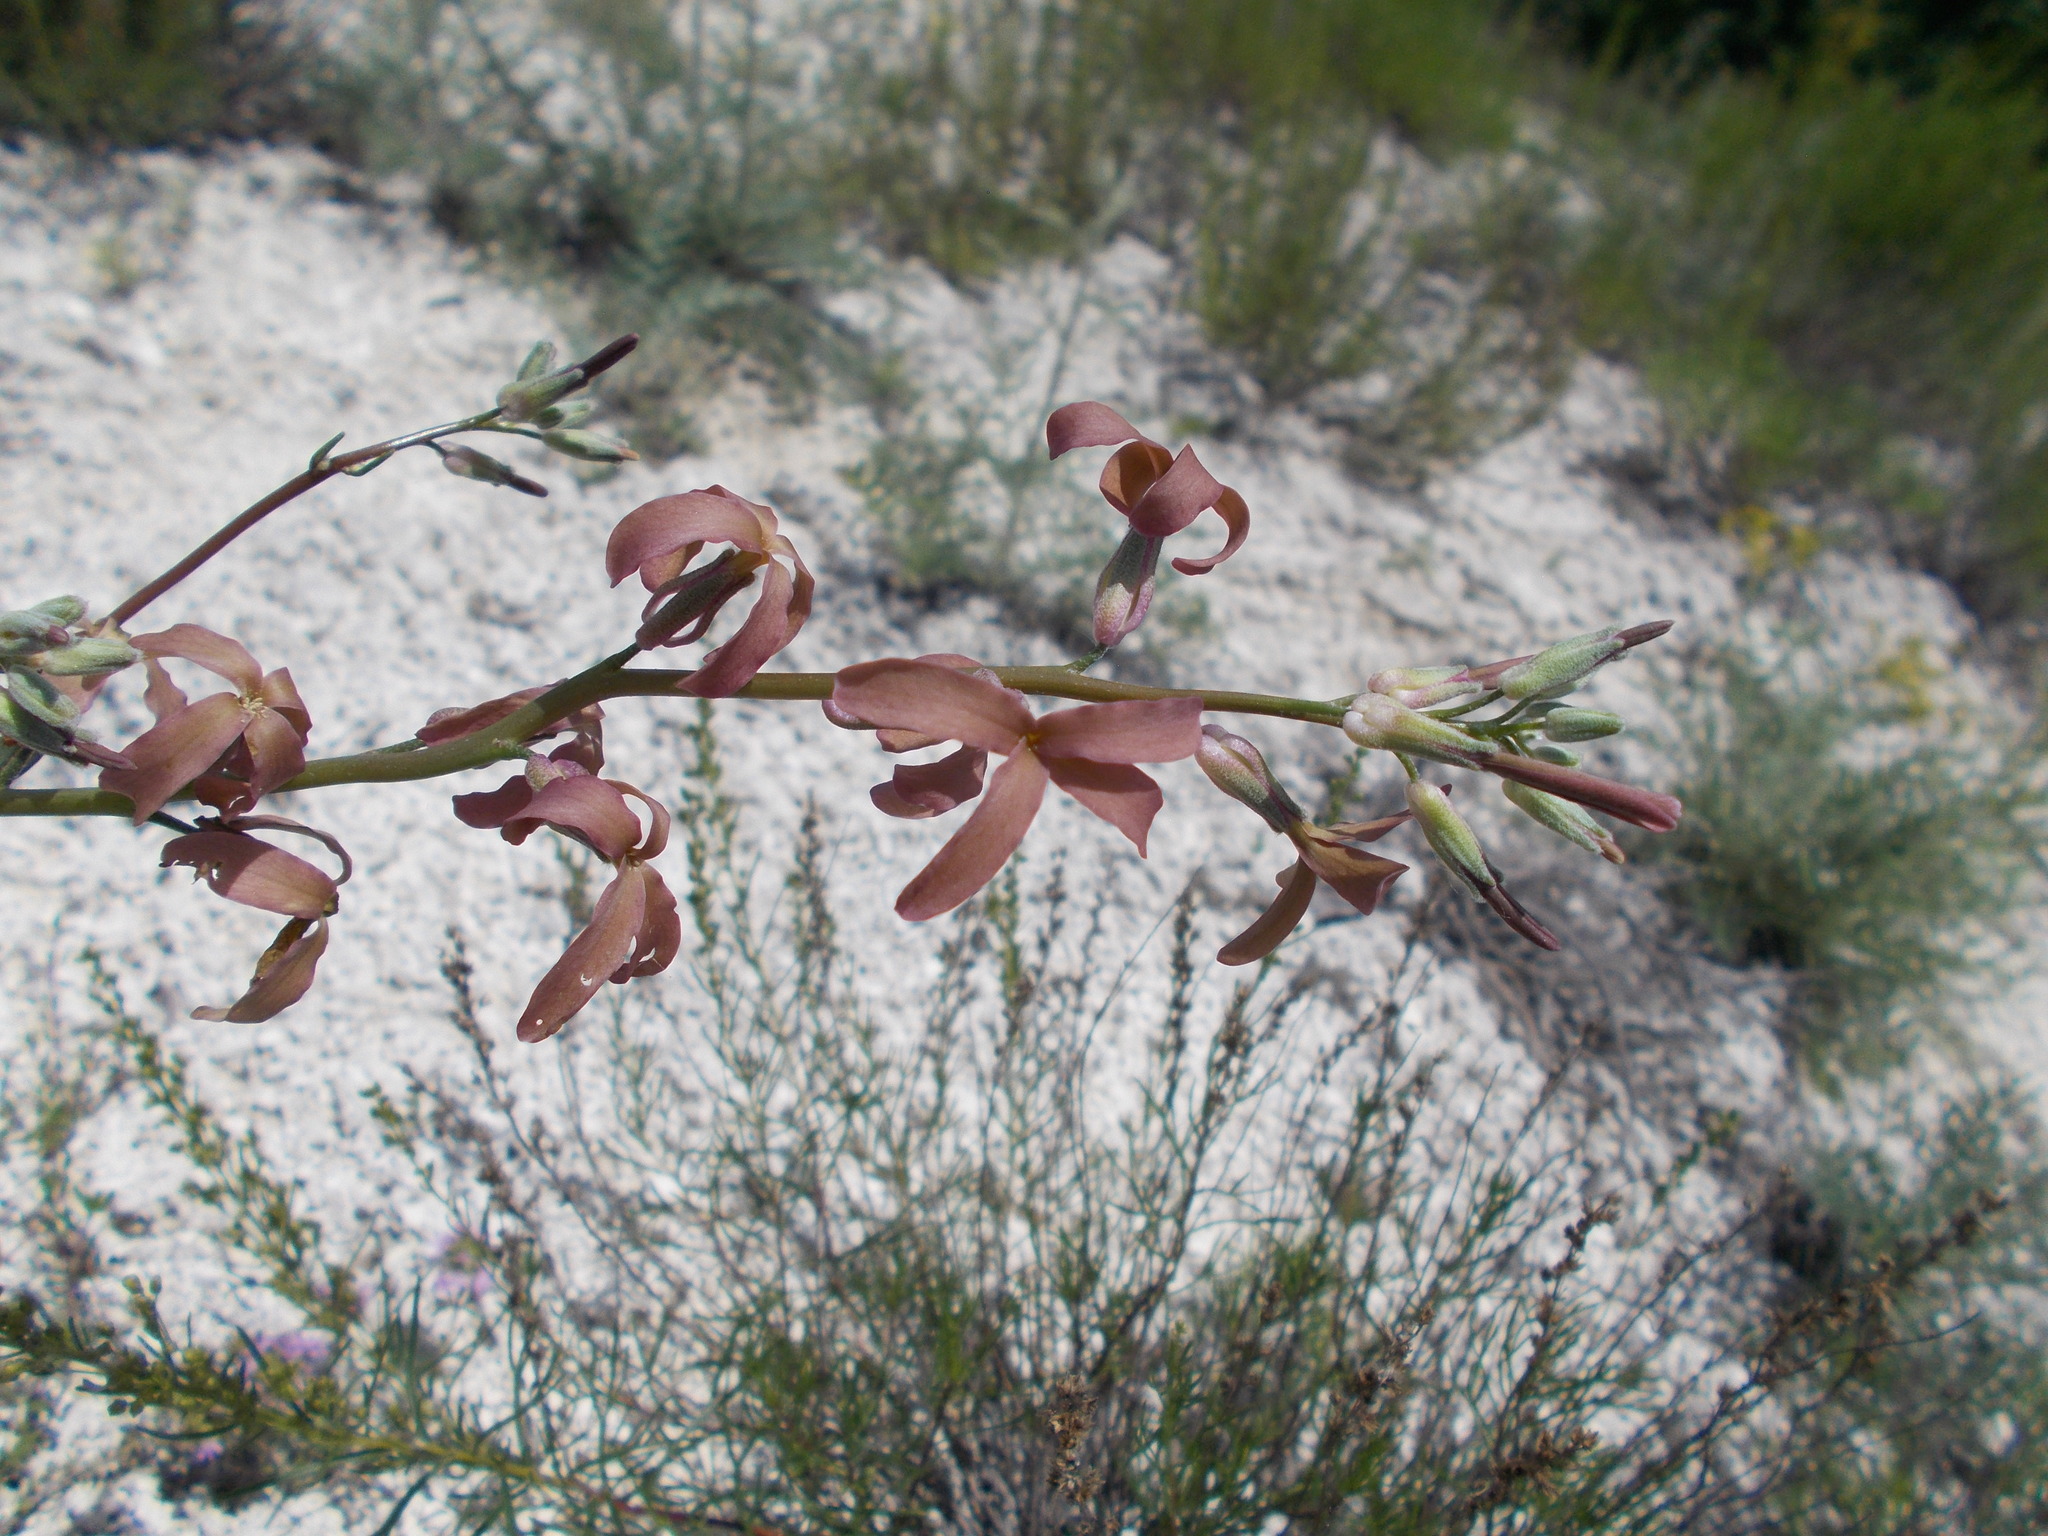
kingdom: Plantae
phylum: Tracheophyta
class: Magnoliopsida
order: Brassicales
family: Brassicaceae
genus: Matthiola
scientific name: Matthiola fragrans
